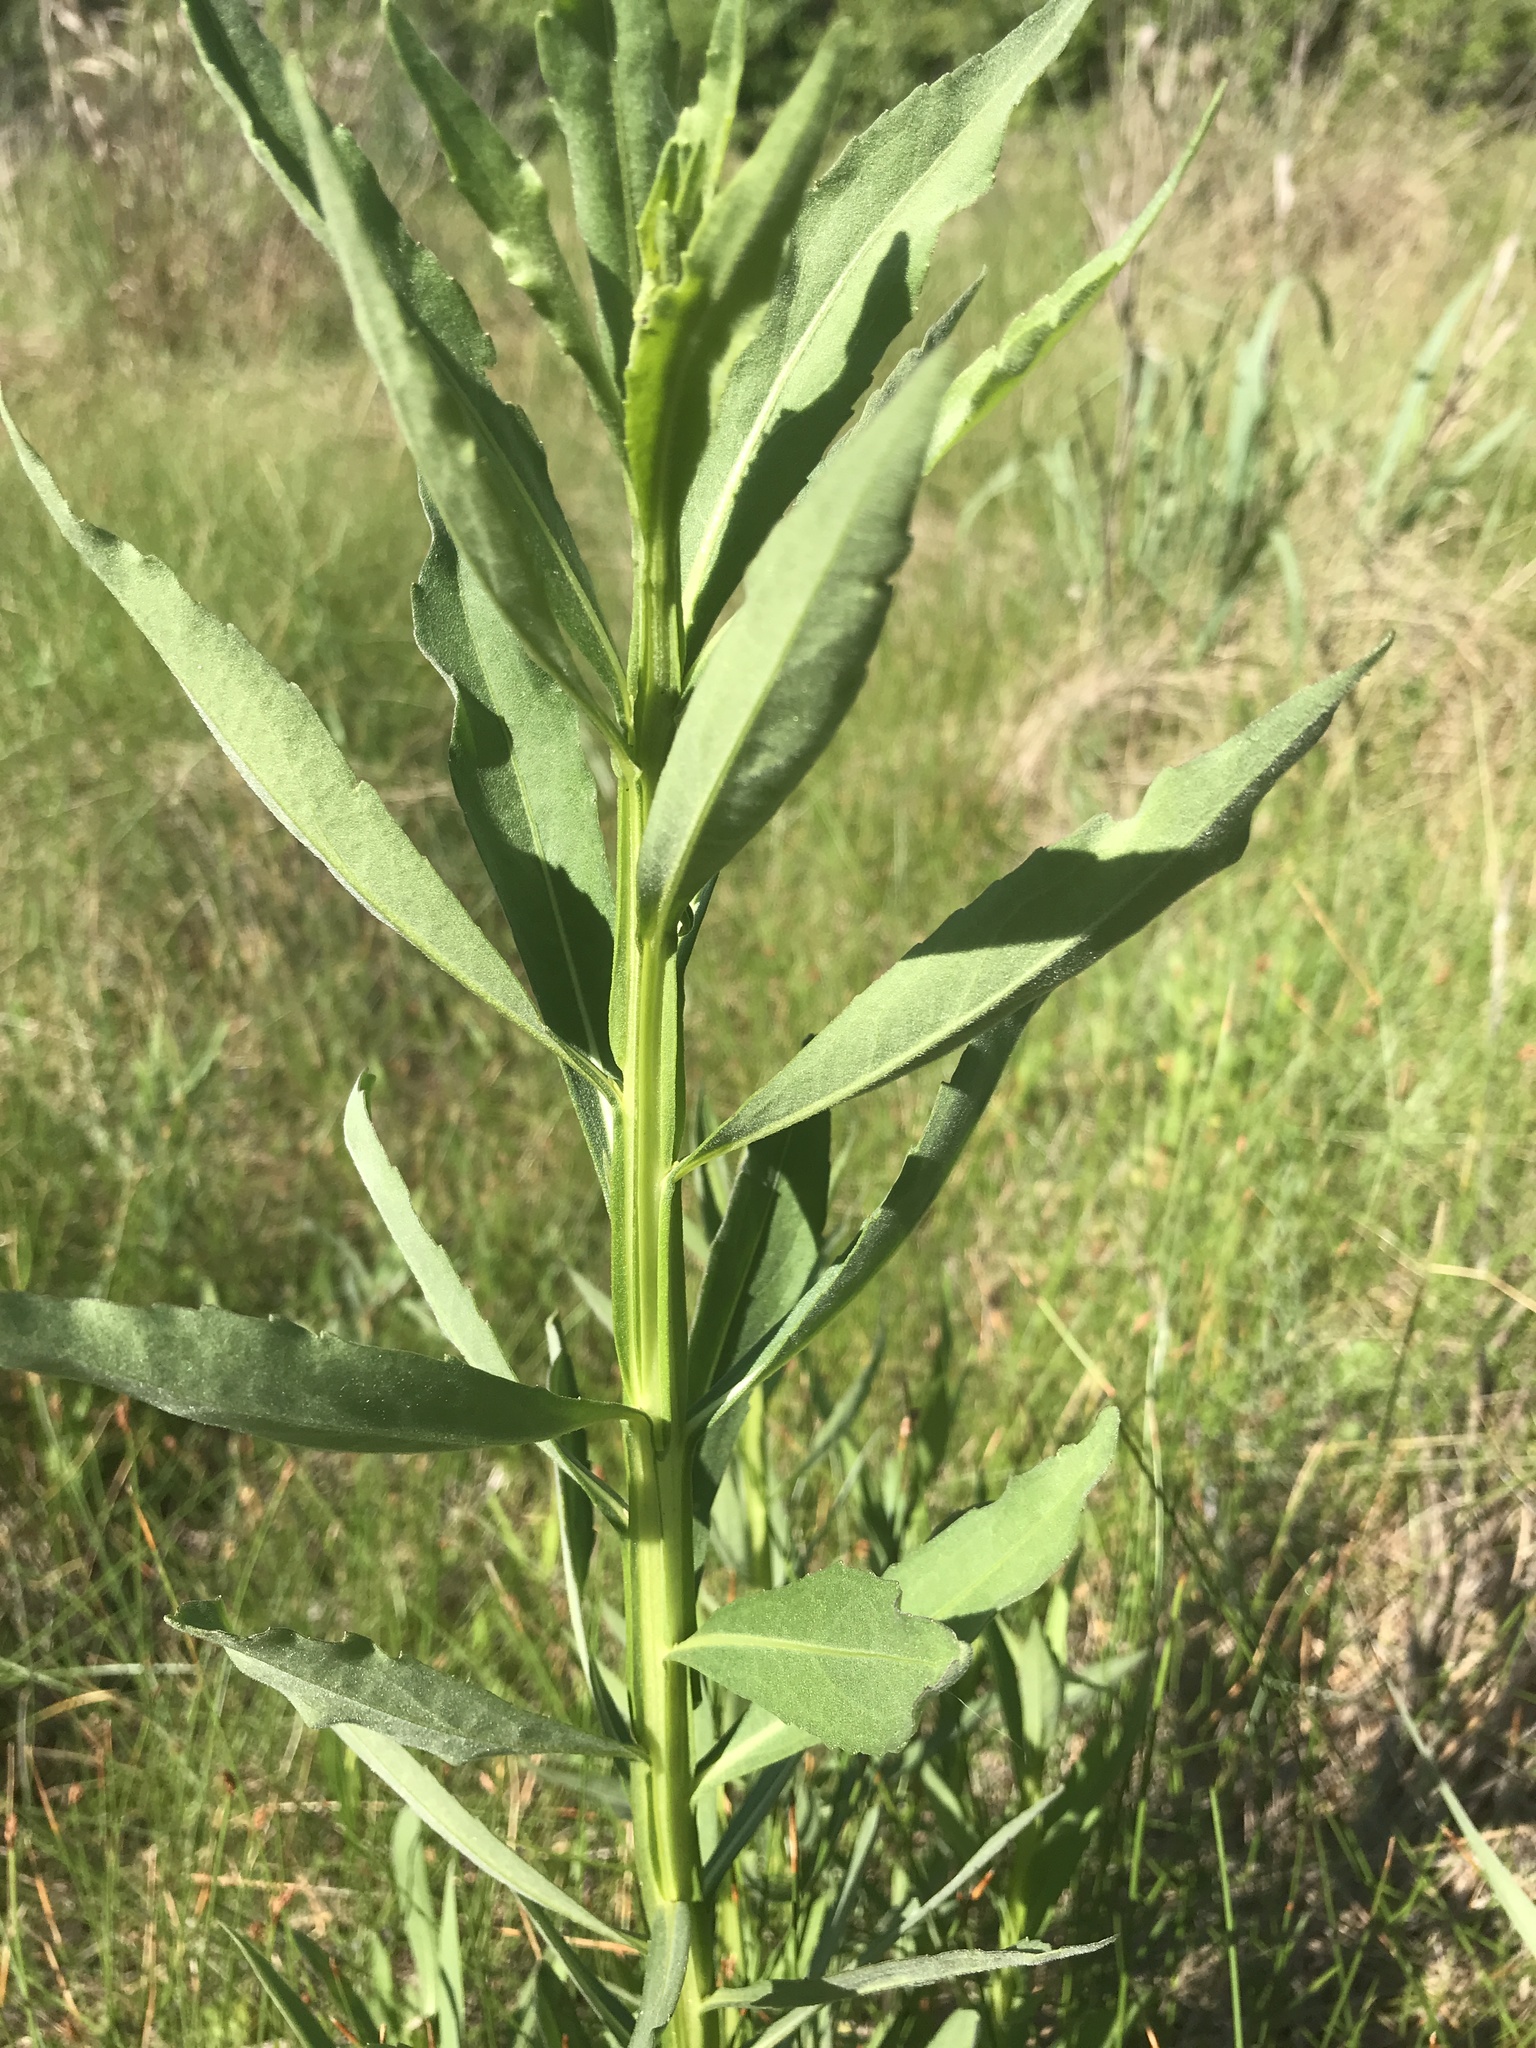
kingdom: Plantae
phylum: Tracheophyta
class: Magnoliopsida
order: Asterales
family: Asteraceae
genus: Helenium
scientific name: Helenium autumnale
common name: Sneezeweed
